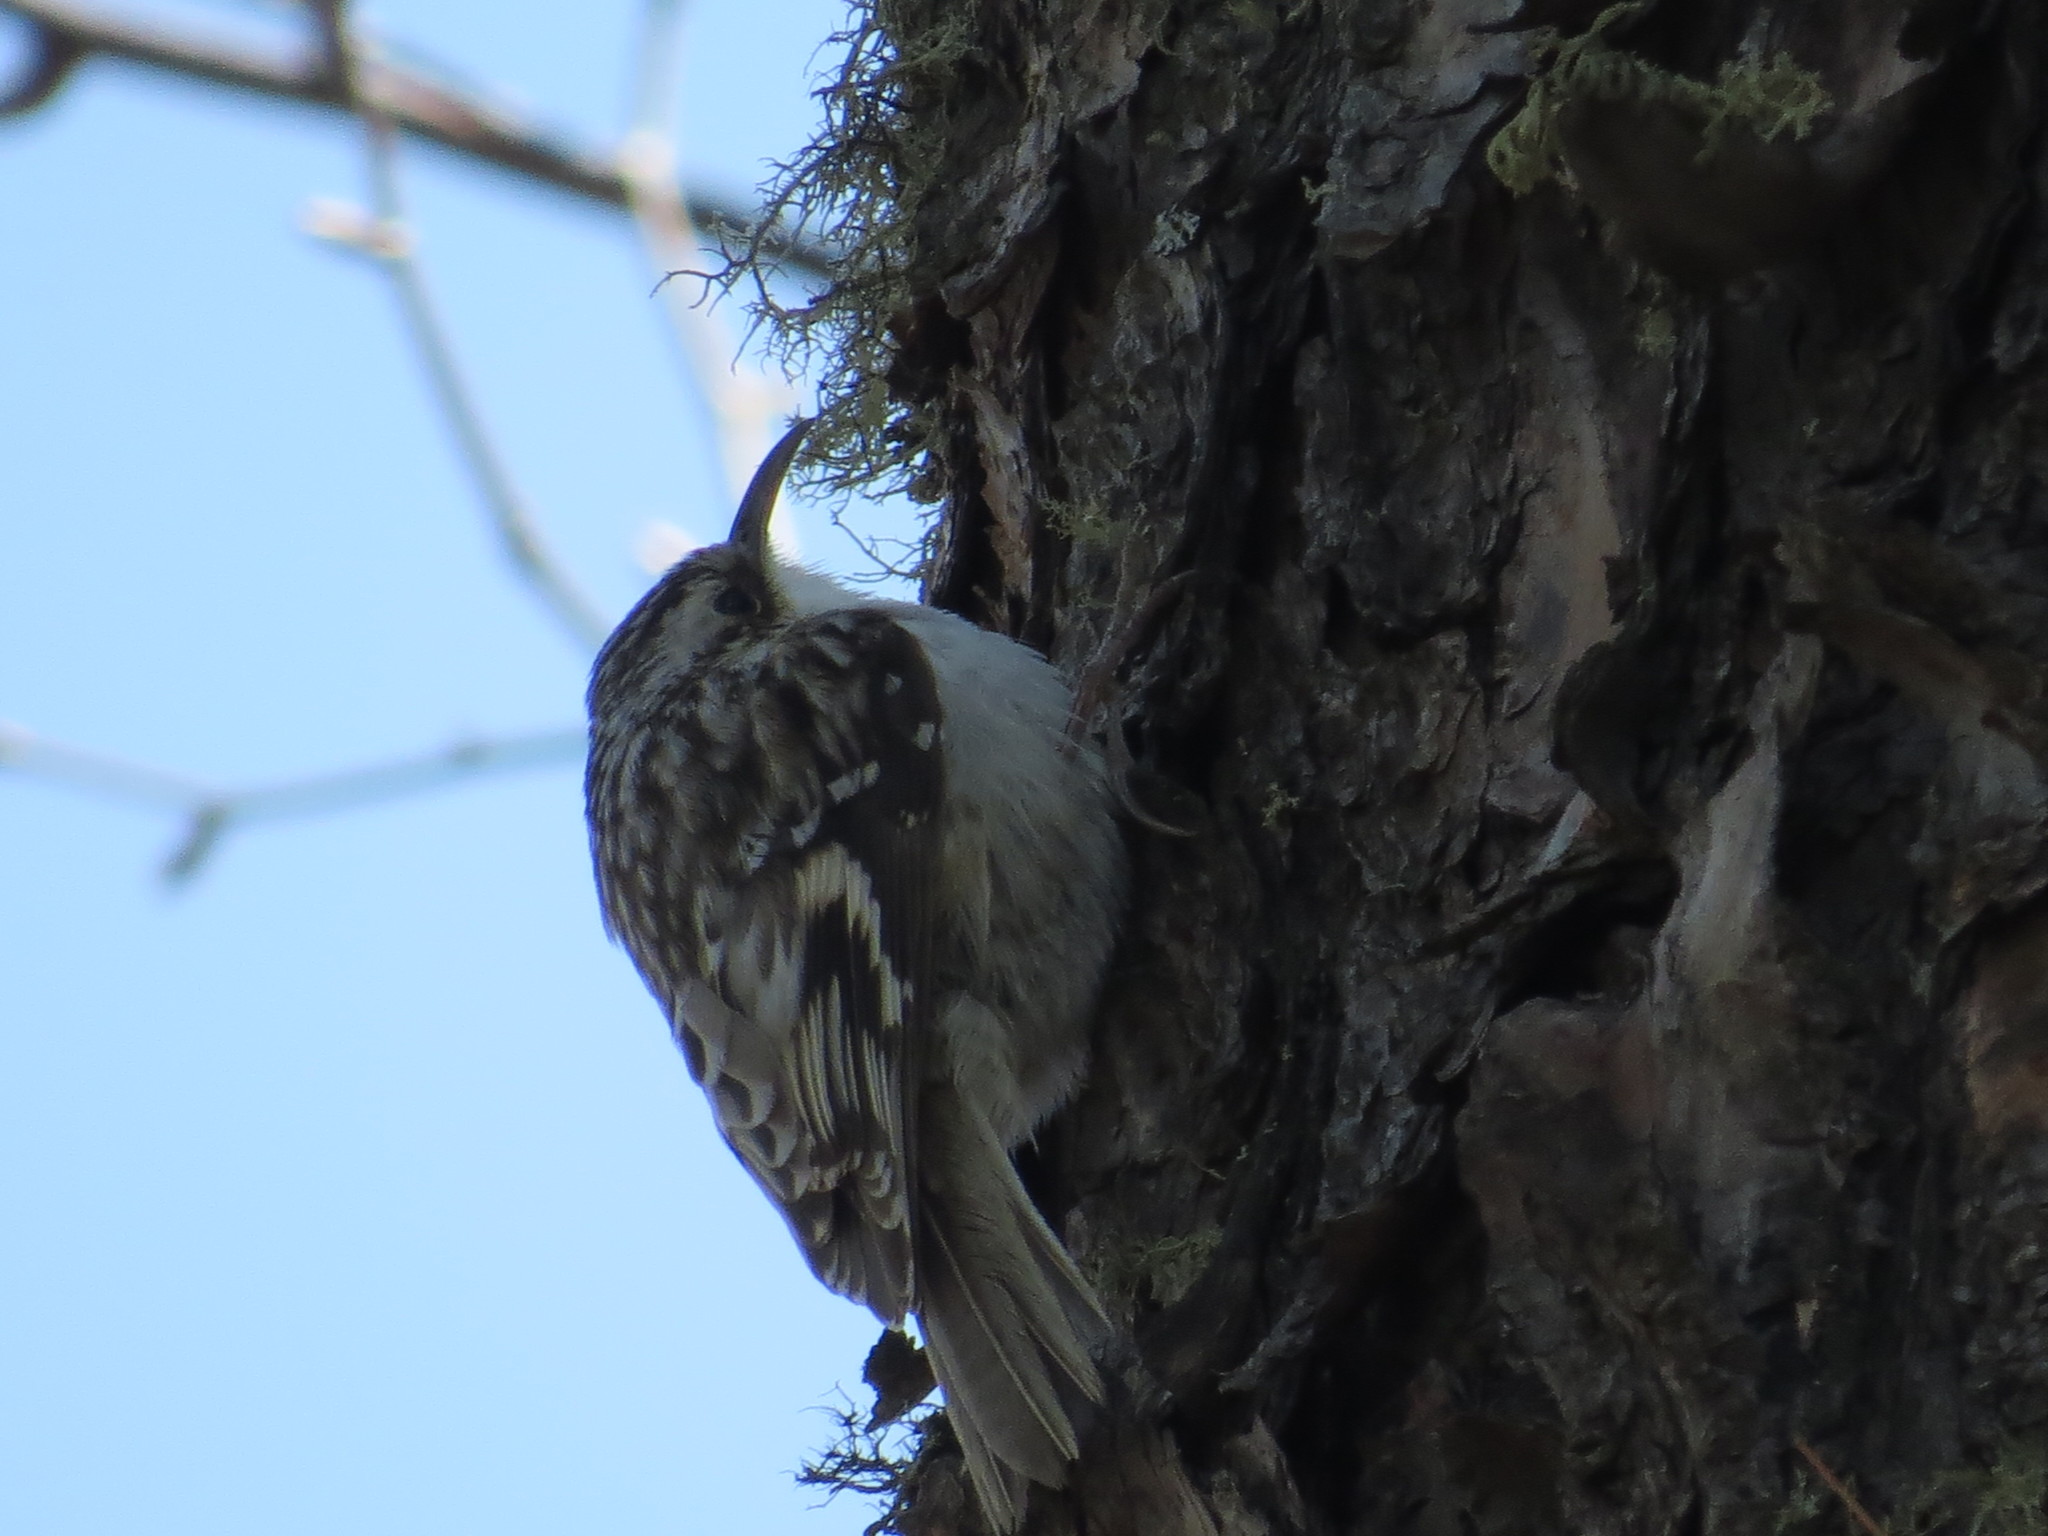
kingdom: Animalia
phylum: Chordata
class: Aves
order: Passeriformes
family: Certhiidae
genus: Certhia
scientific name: Certhia americana
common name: Brown creeper
